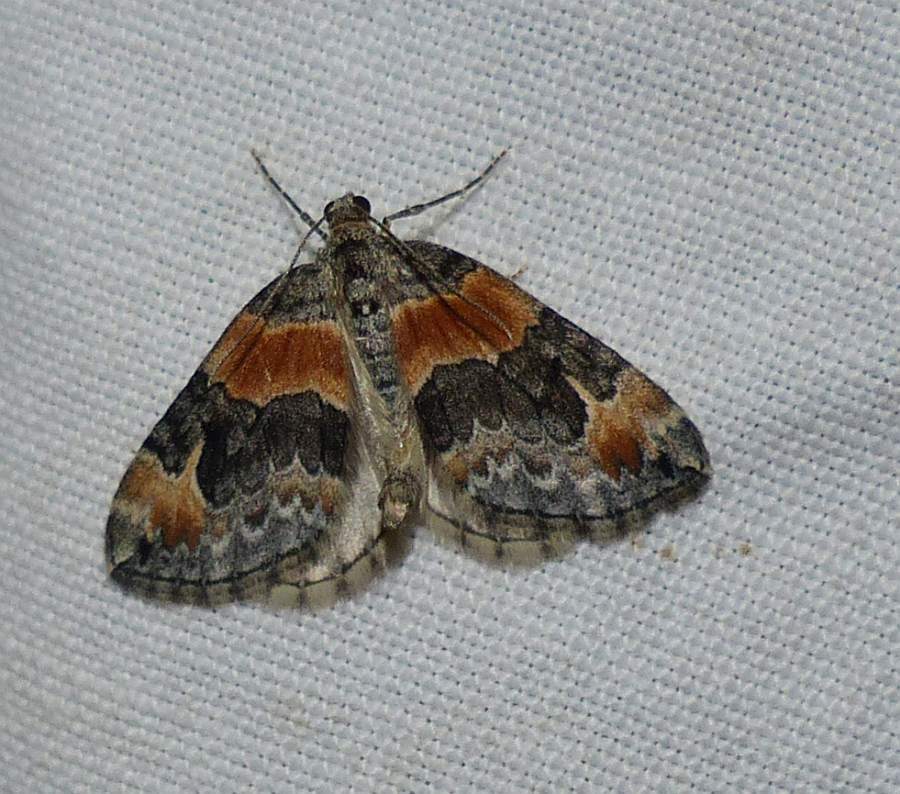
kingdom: Animalia
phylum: Arthropoda
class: Insecta
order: Lepidoptera
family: Geometridae
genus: Dysstroma
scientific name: Dysstroma hersiliata
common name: Orange-barred carpet
